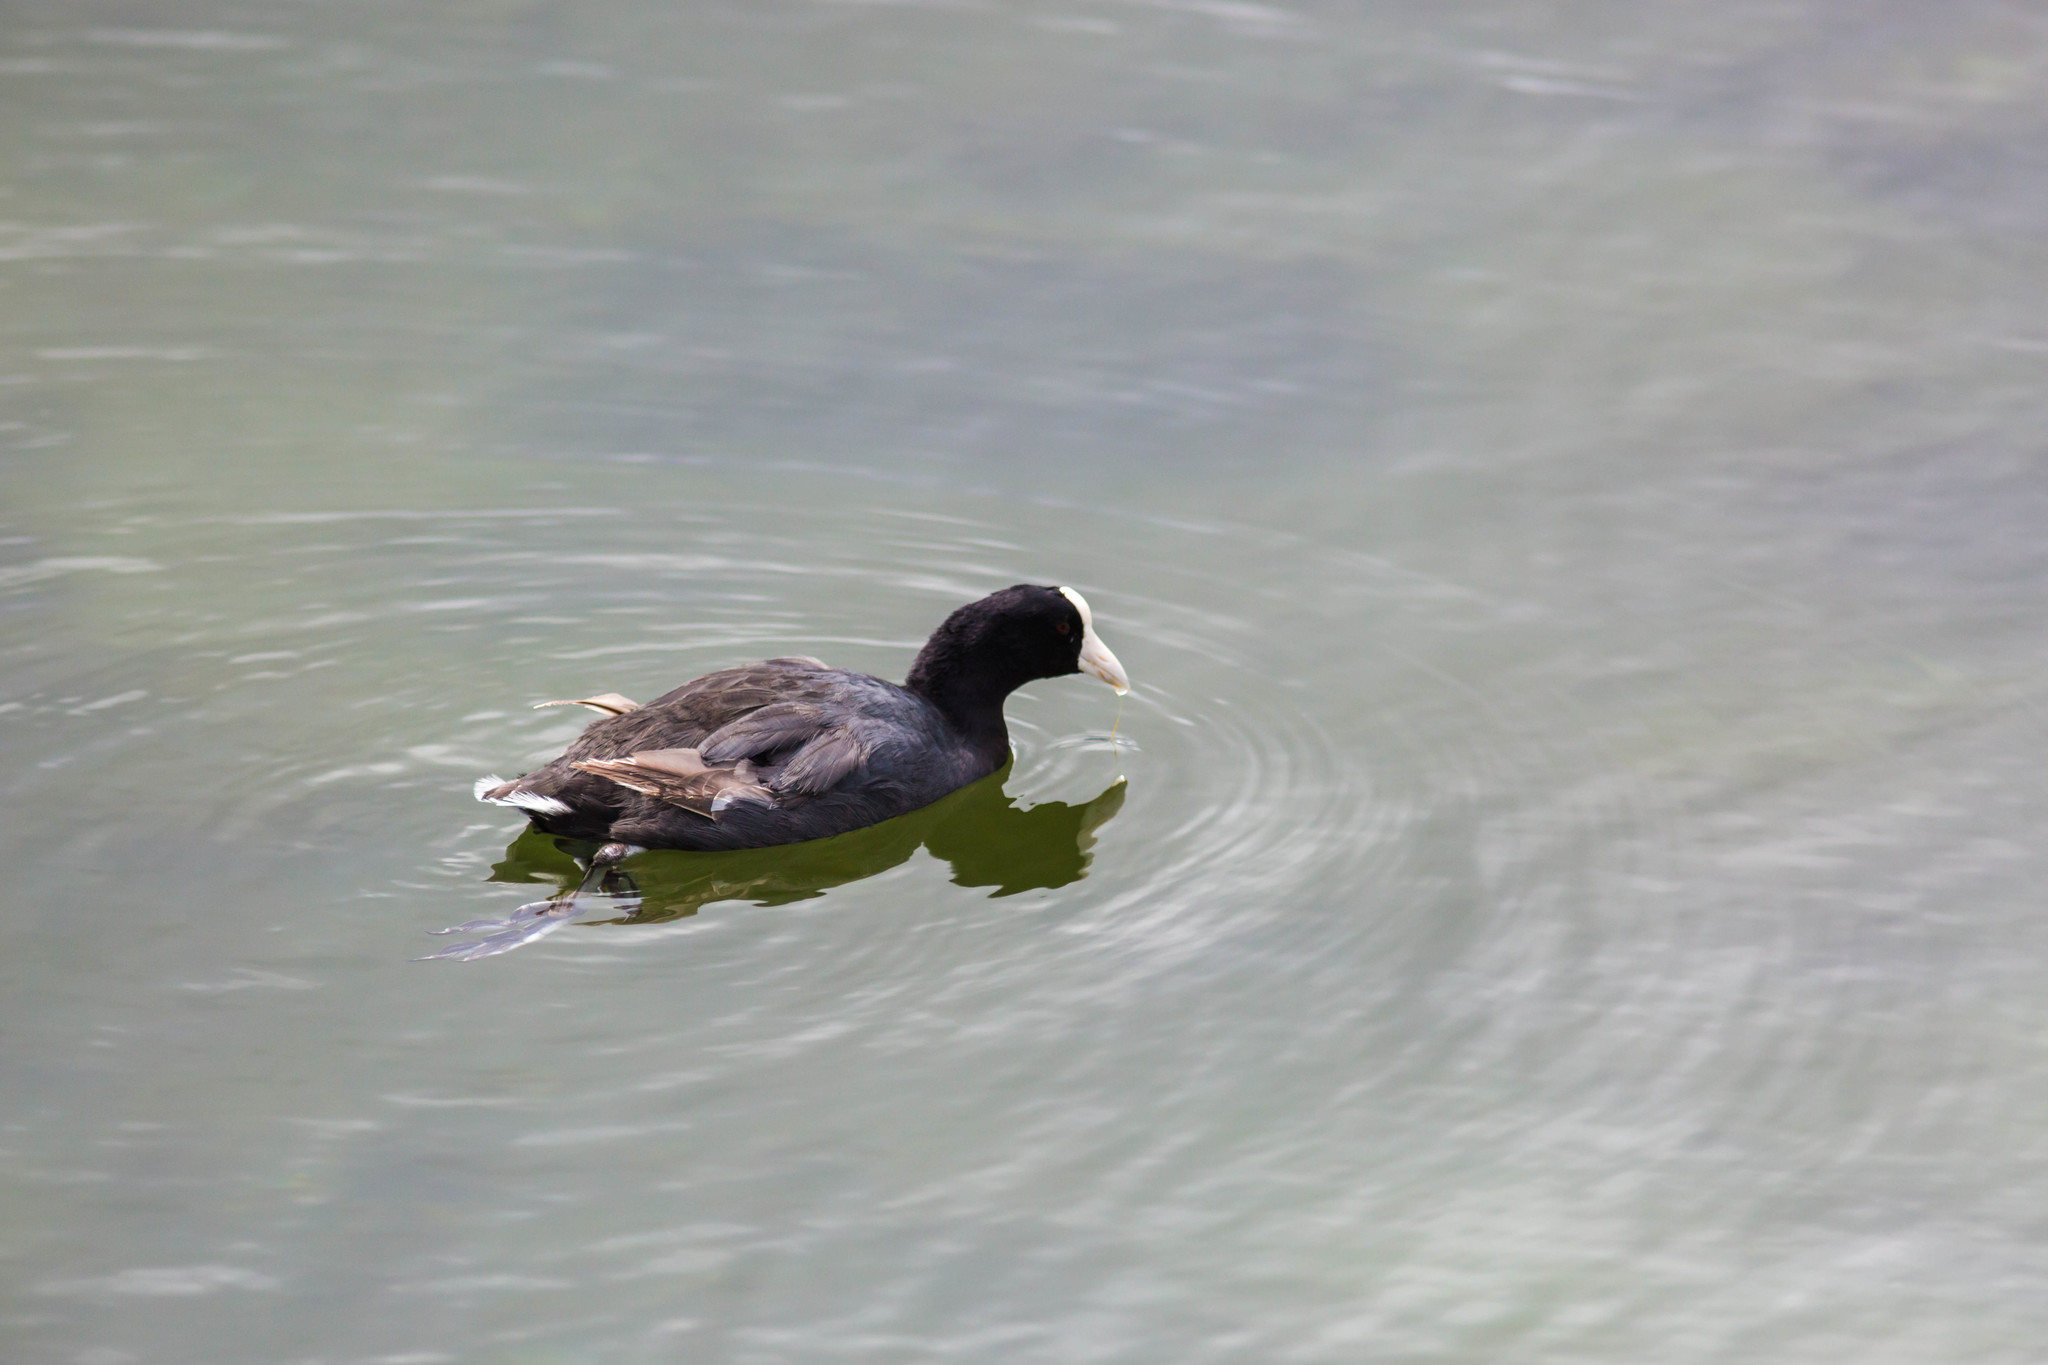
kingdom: Animalia
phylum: Chordata
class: Aves
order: Gruiformes
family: Rallidae
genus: Fulica
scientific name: Fulica alai
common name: Hawaiian coot
